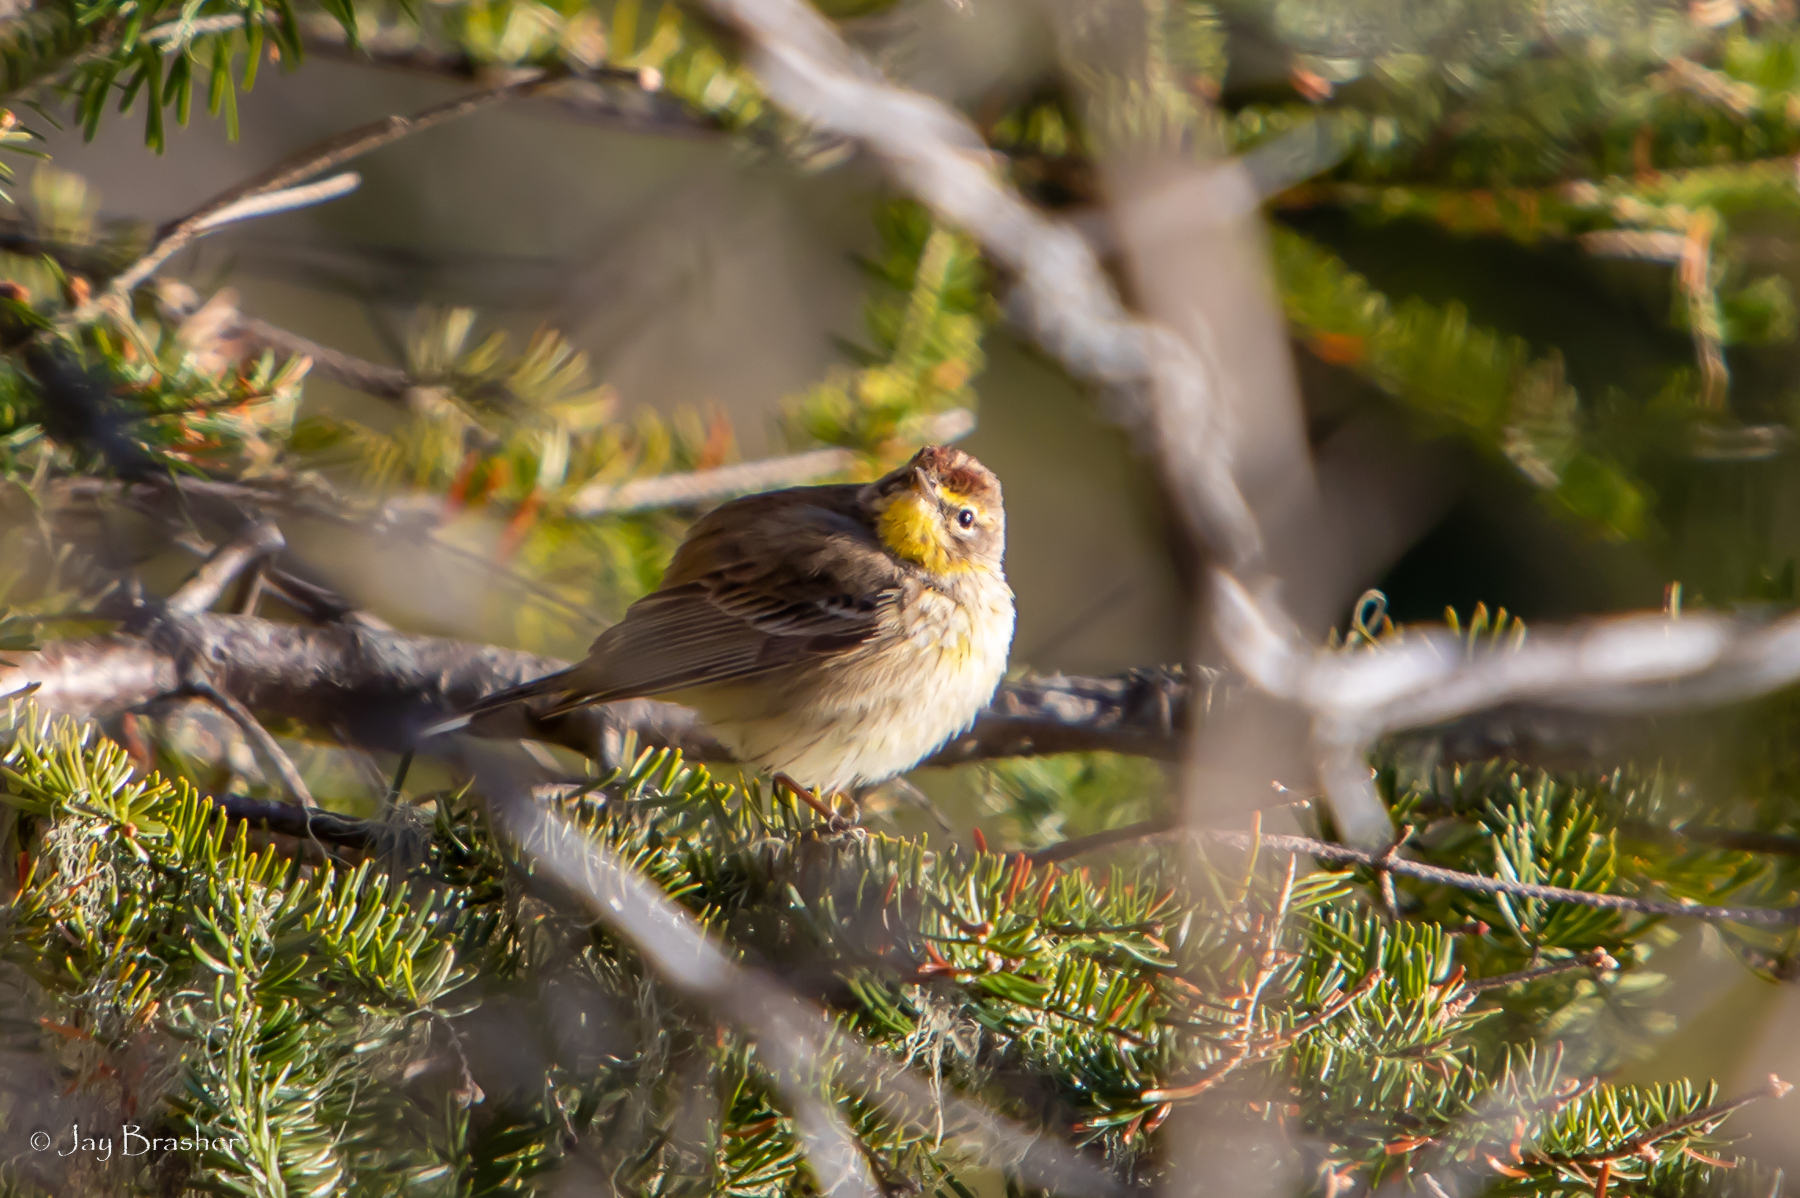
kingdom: Animalia
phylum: Chordata
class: Aves
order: Passeriformes
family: Parulidae
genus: Setophaga
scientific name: Setophaga palmarum
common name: Palm warbler
